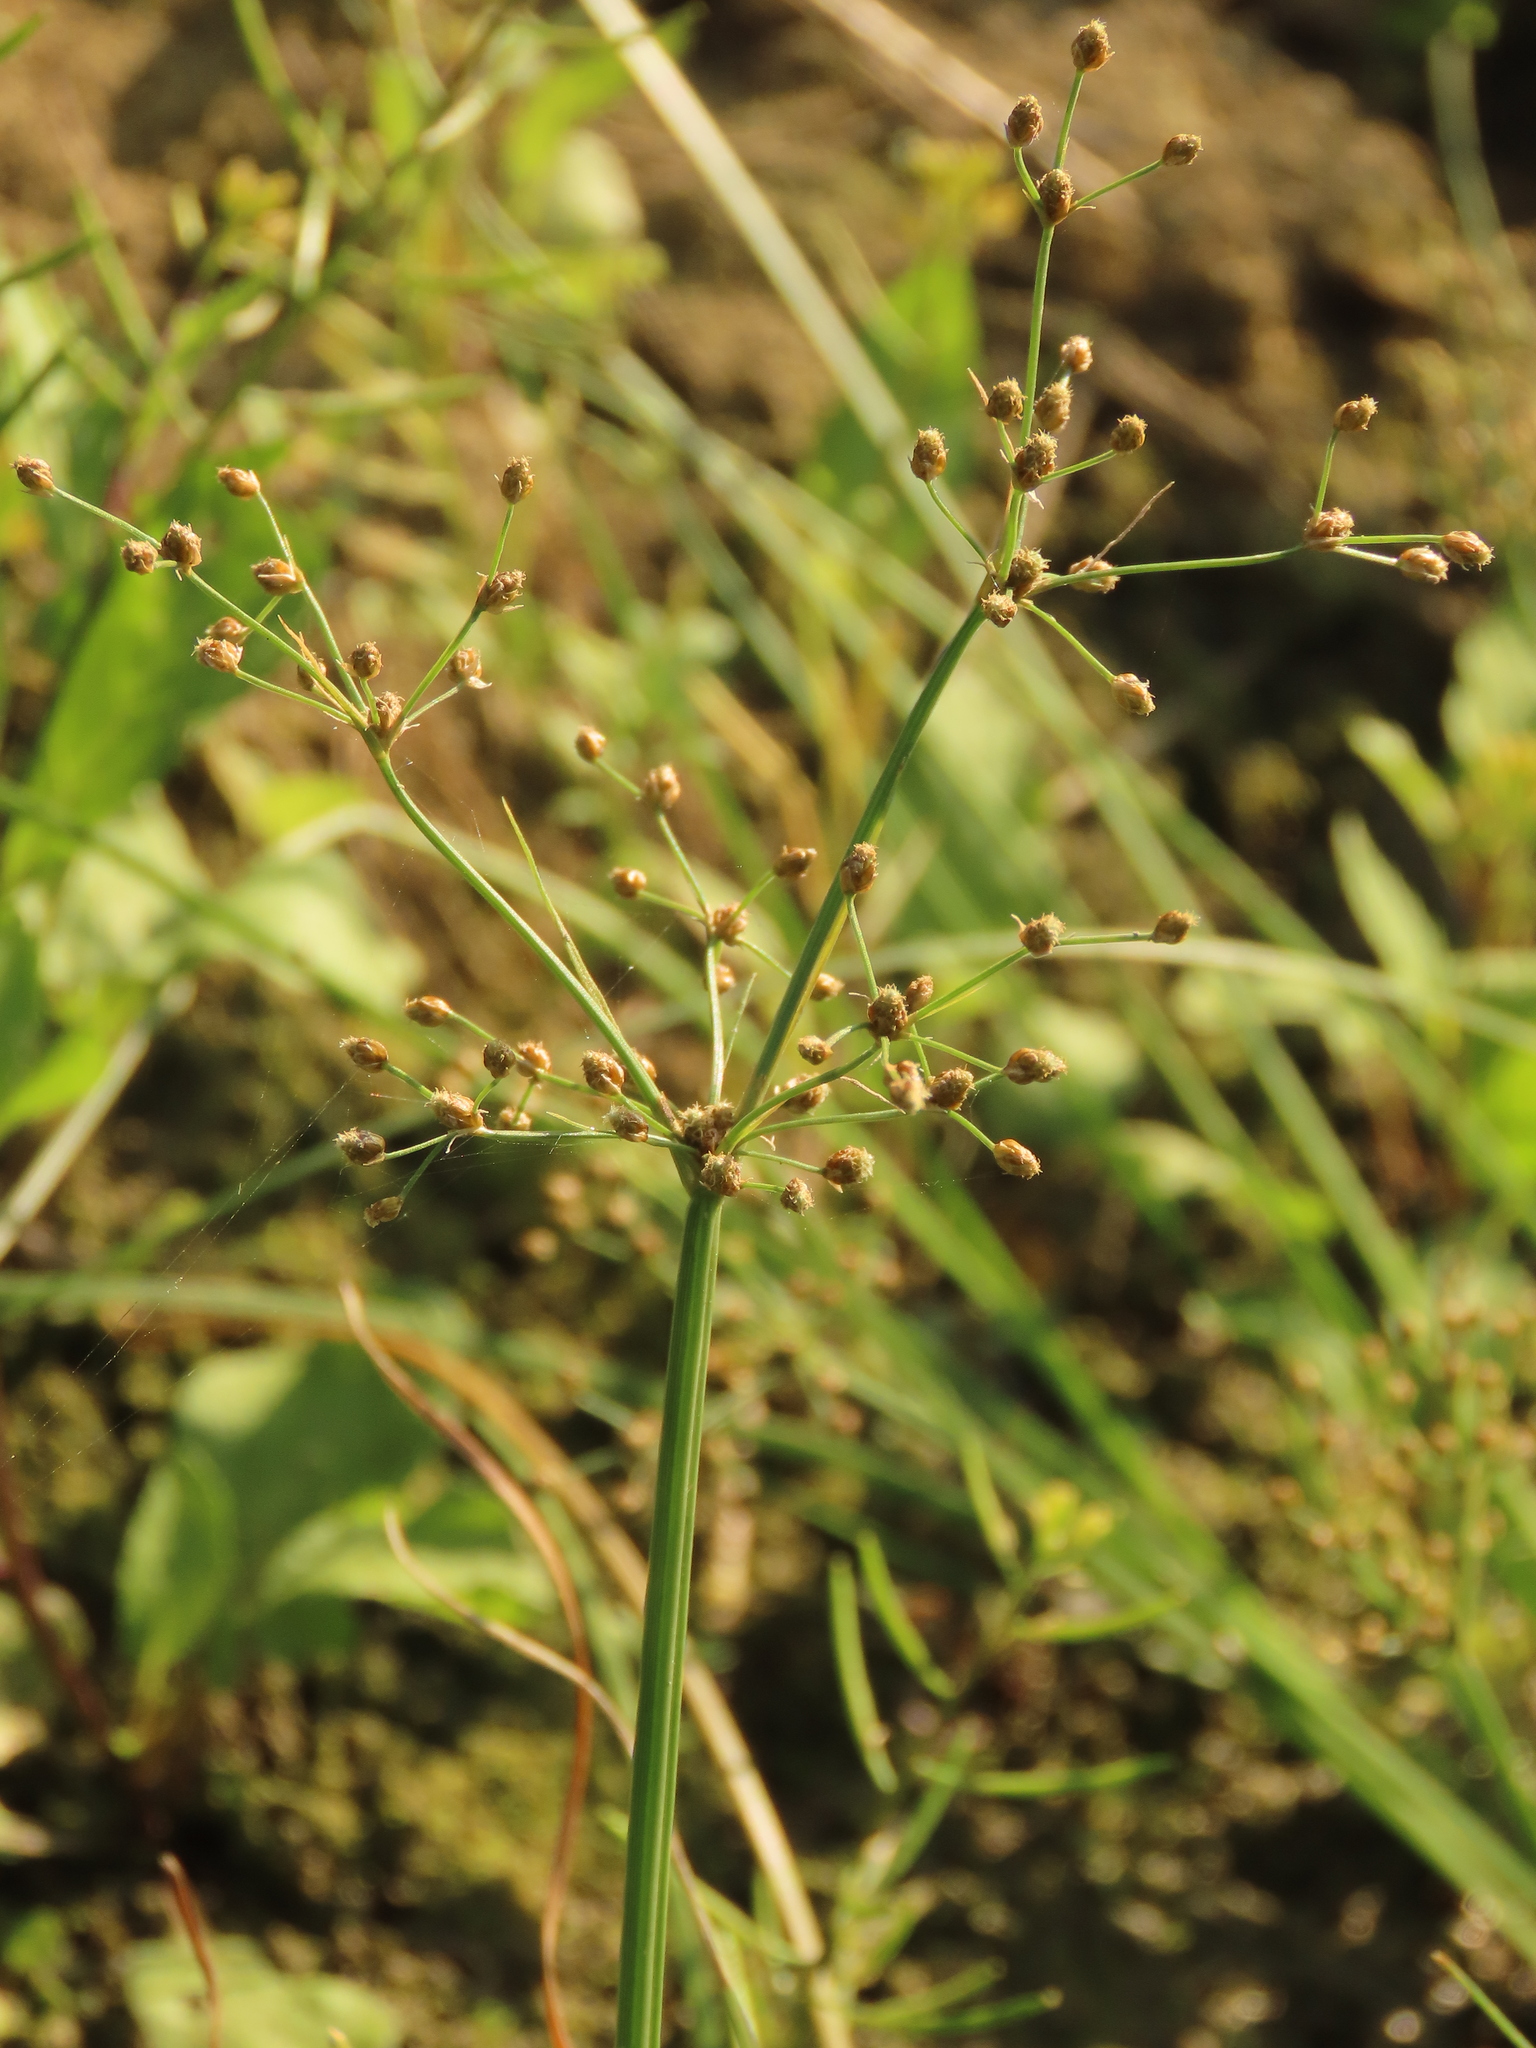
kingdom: Plantae
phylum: Tracheophyta
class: Liliopsida
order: Poales
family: Cyperaceae
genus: Fimbristylis
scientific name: Fimbristylis littoralis
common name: Fimbry
